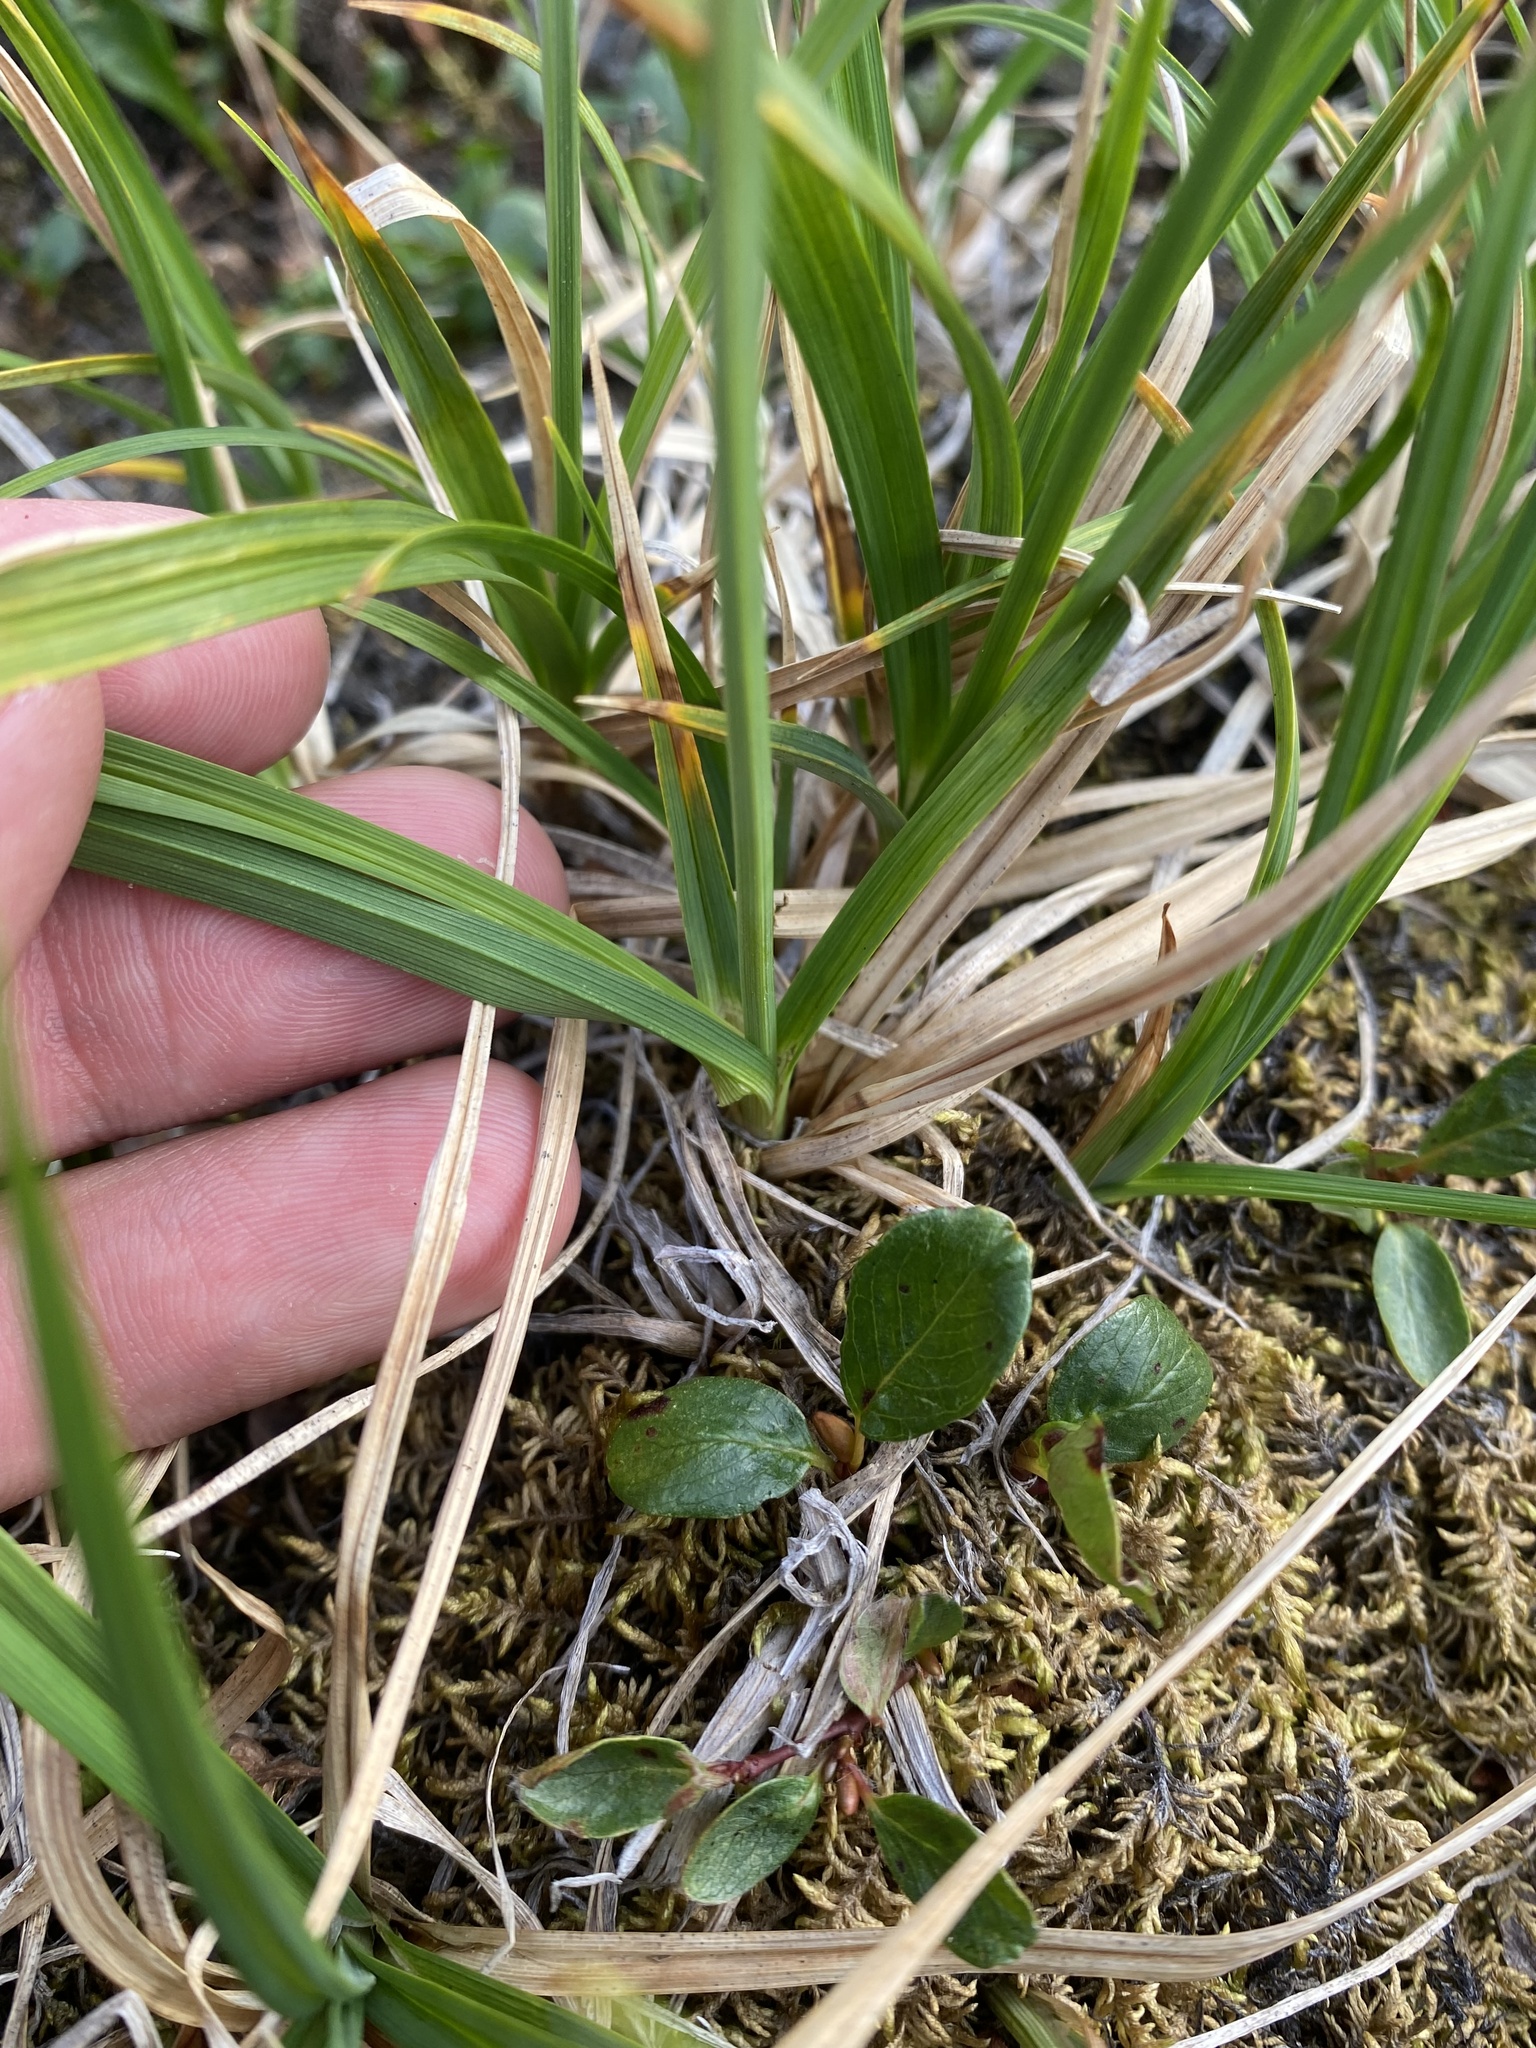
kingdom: Plantae
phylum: Tracheophyta
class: Liliopsida
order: Poales
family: Cyperaceae
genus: Carex
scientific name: Carex bigelowii
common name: Stiff sedge
